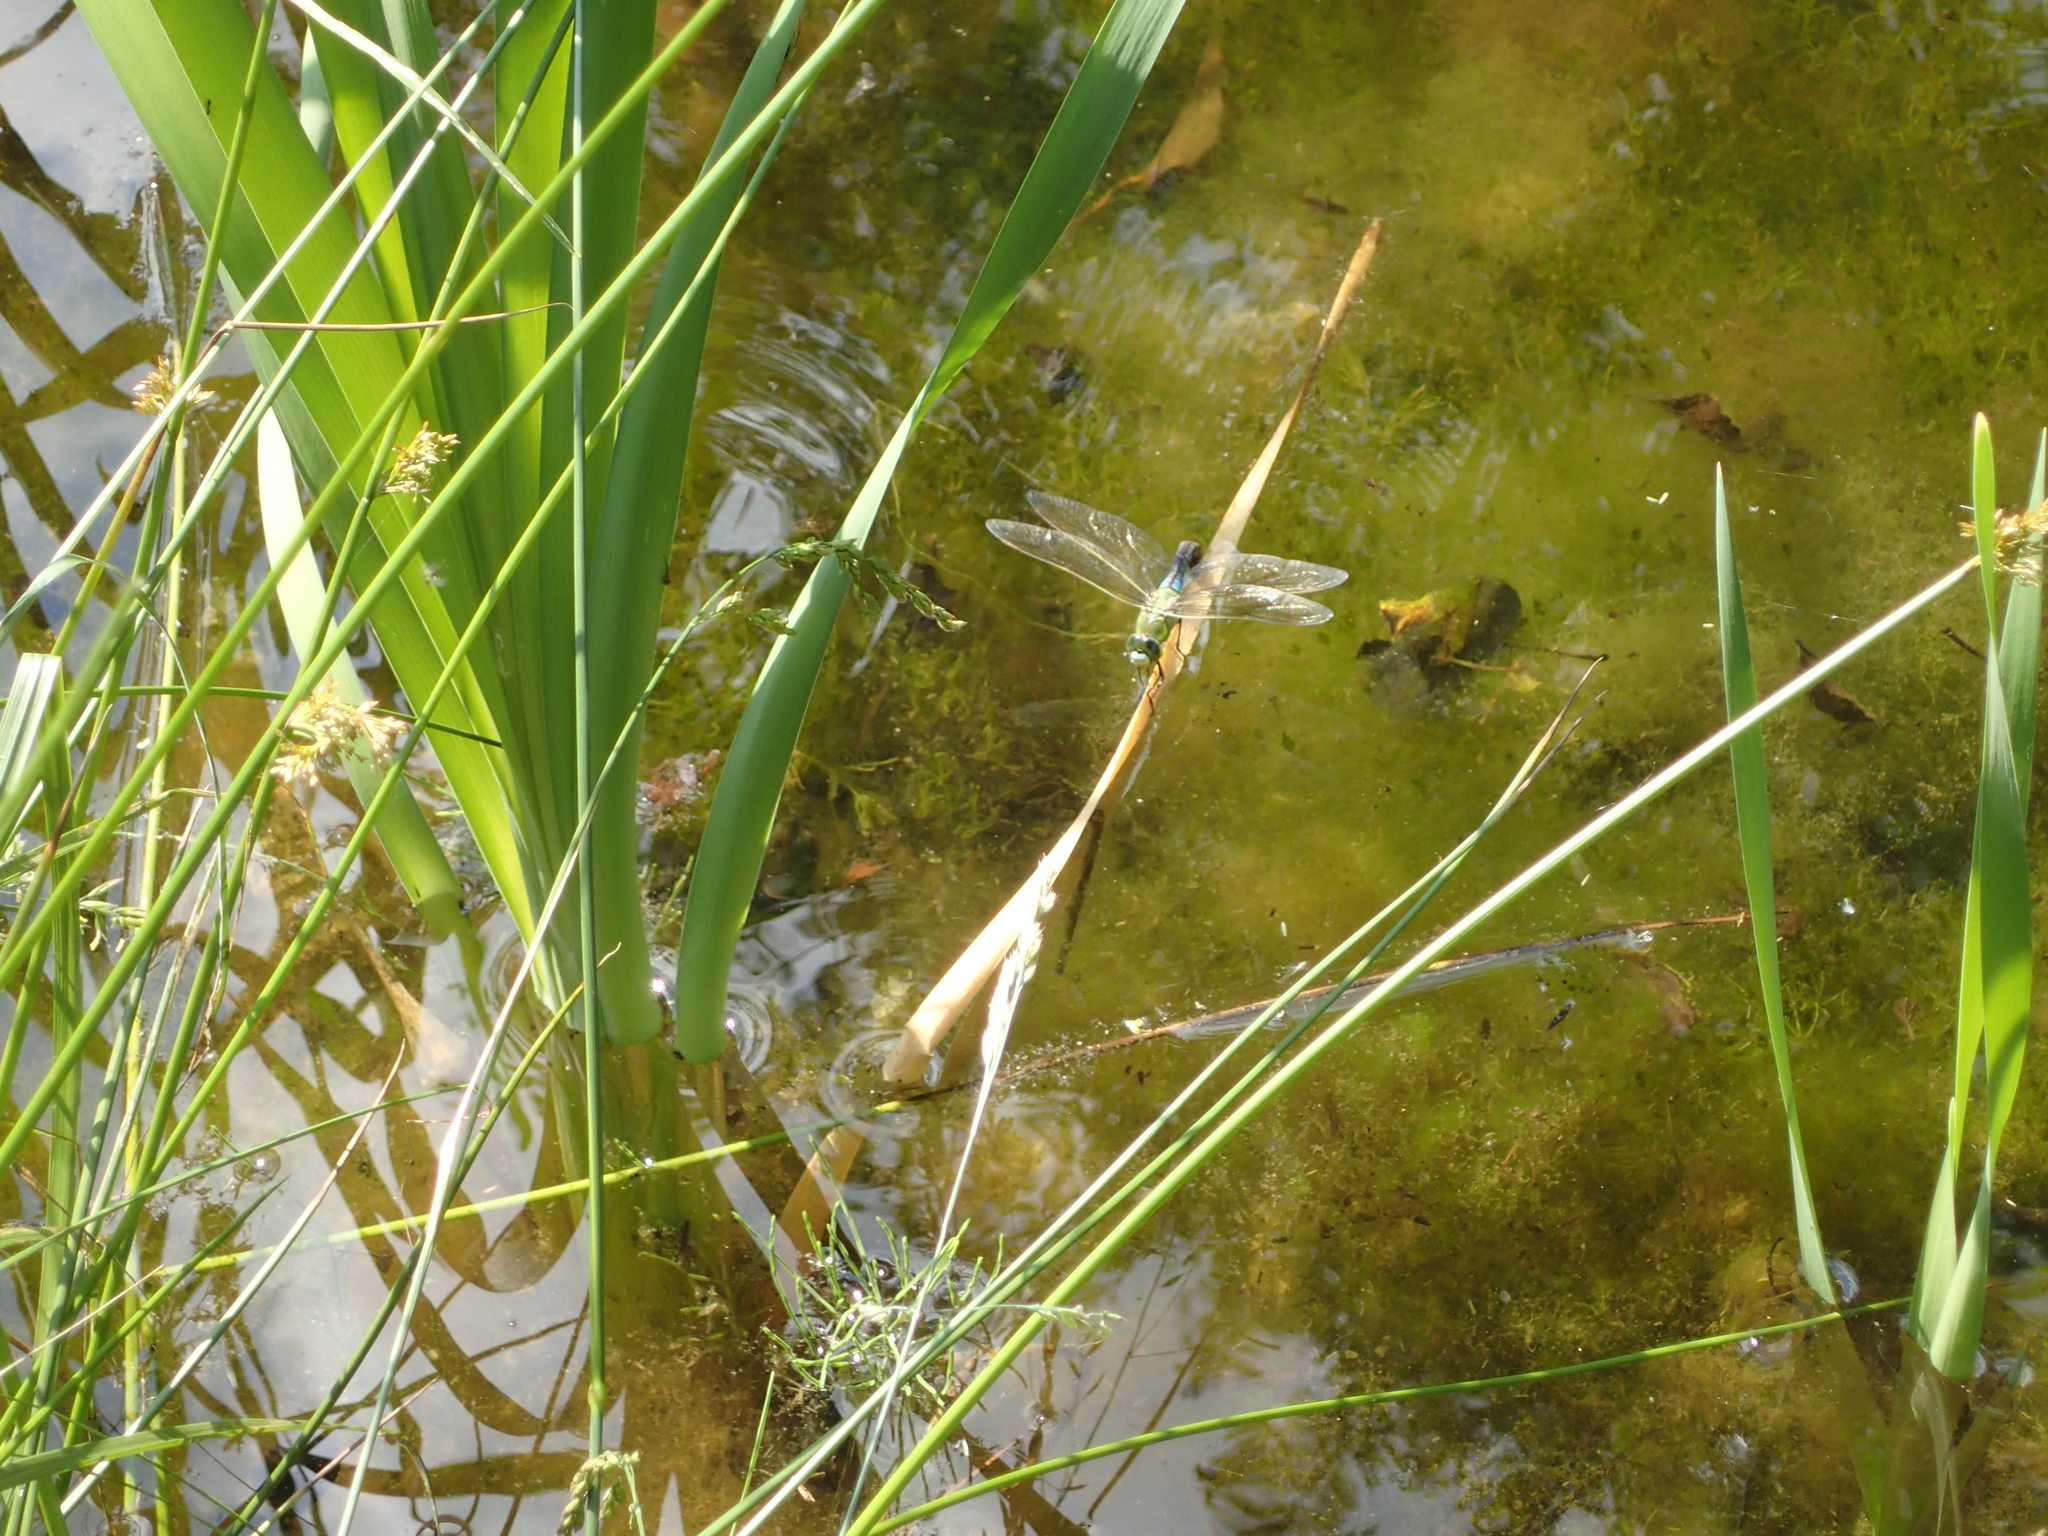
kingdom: Animalia
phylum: Arthropoda
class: Insecta
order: Odonata
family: Aeshnidae
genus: Anax
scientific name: Anax imperator
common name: Emperor dragonfly
